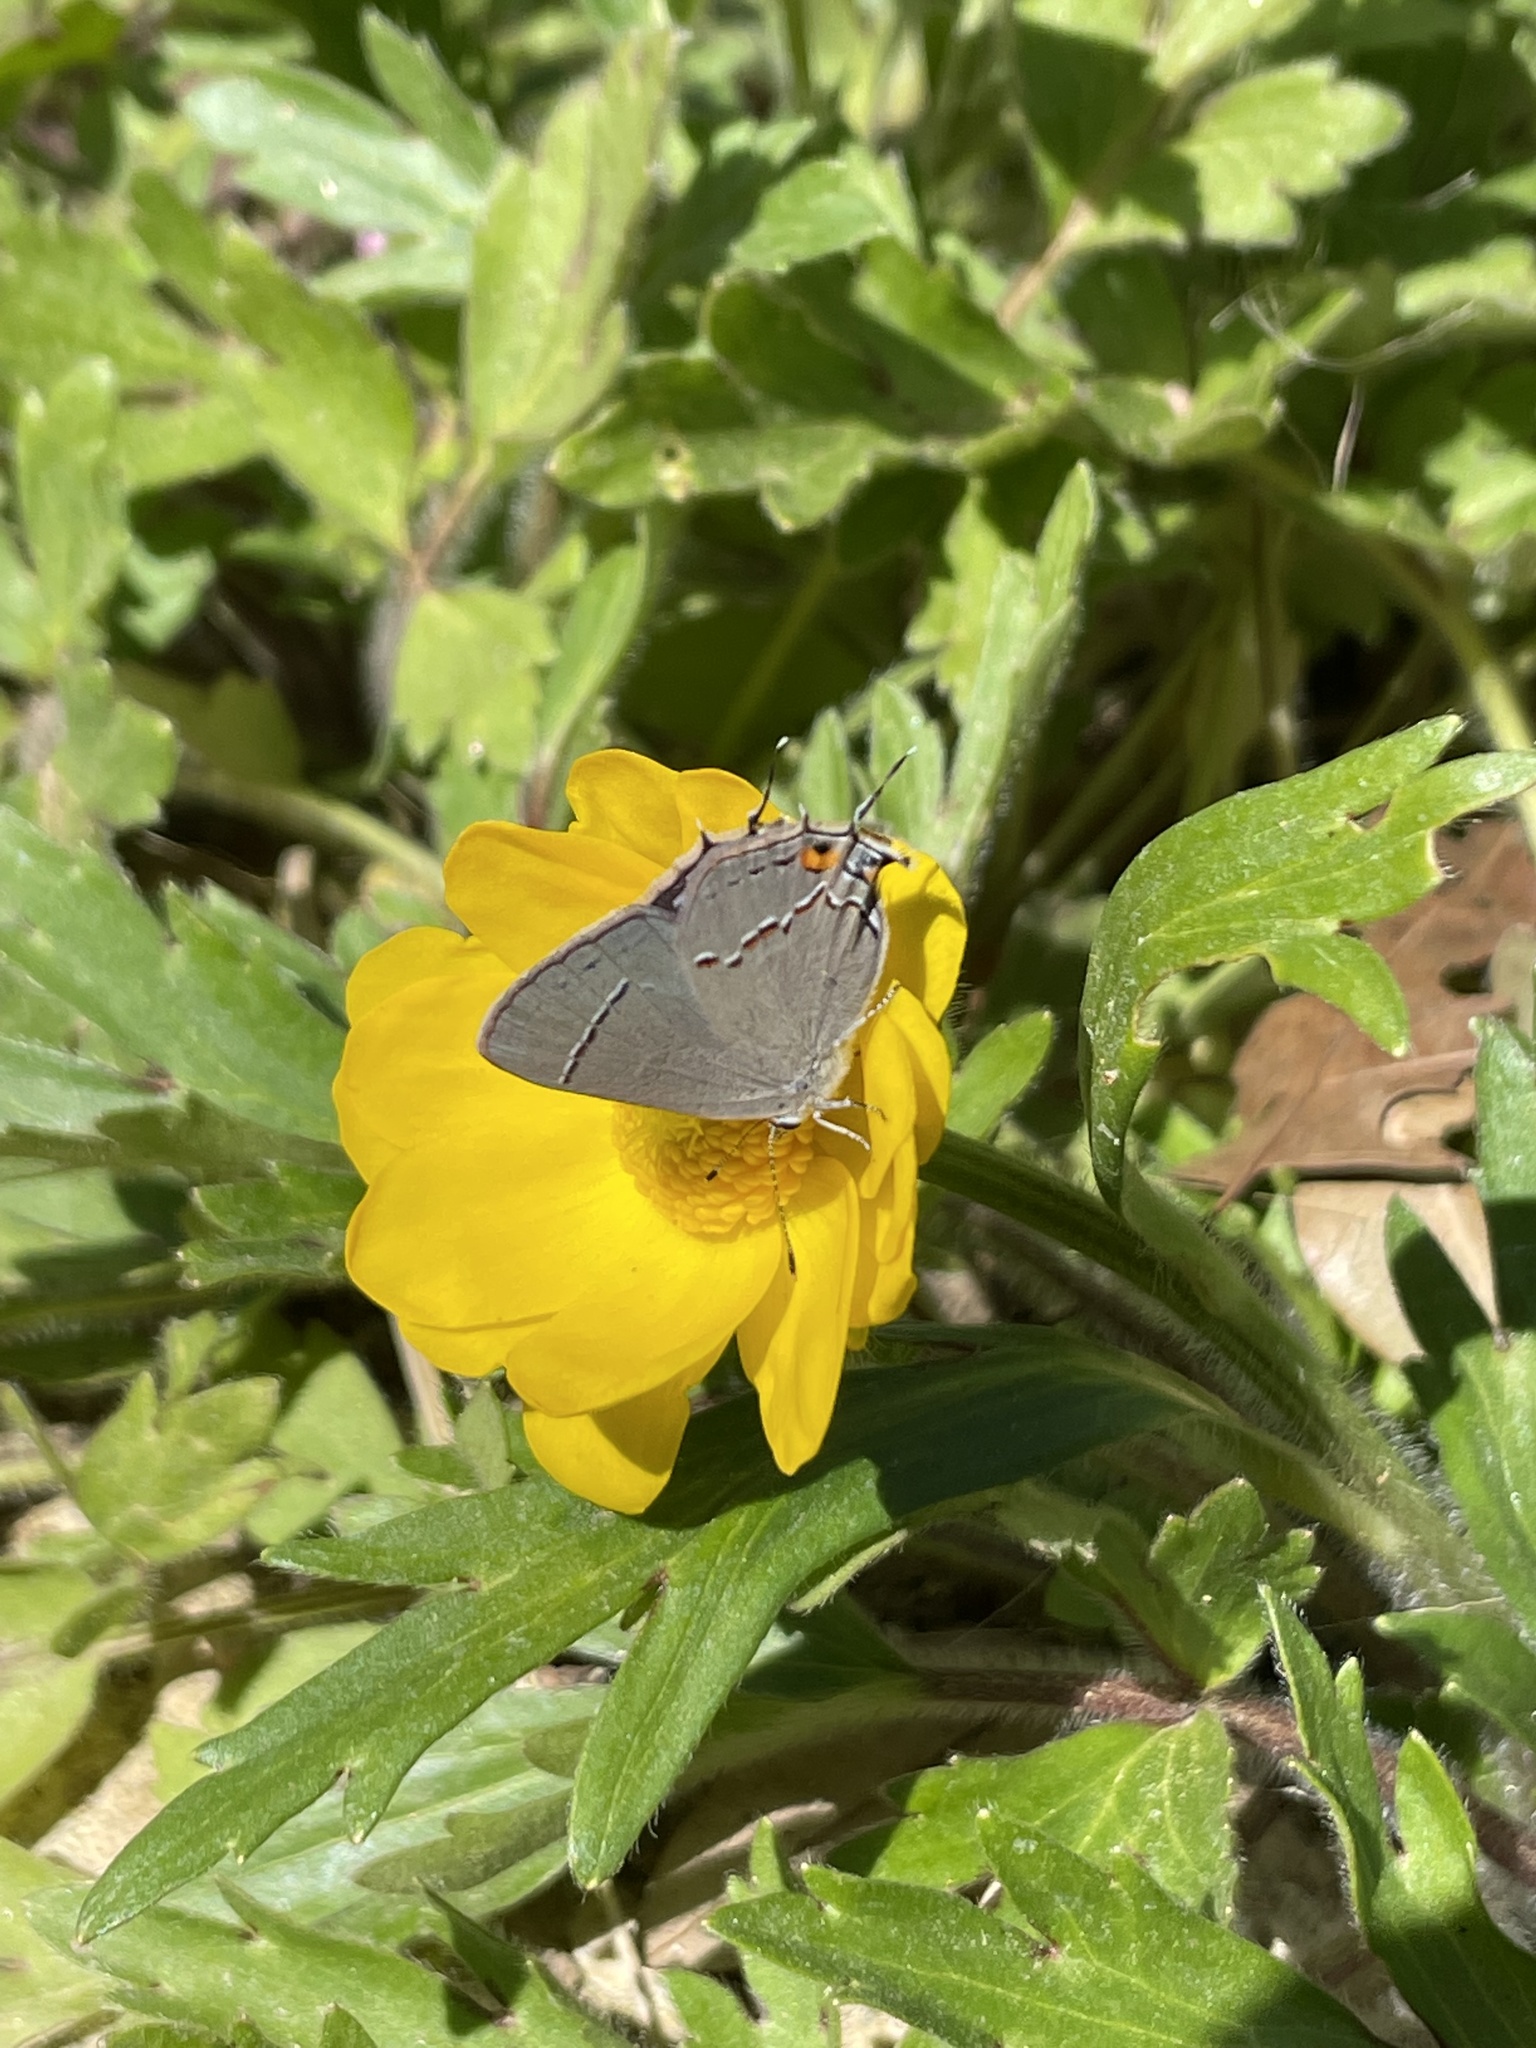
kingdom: Animalia
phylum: Arthropoda
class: Insecta
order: Lepidoptera
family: Lycaenidae
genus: Strymon
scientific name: Strymon melinus
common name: Gray hairstreak
